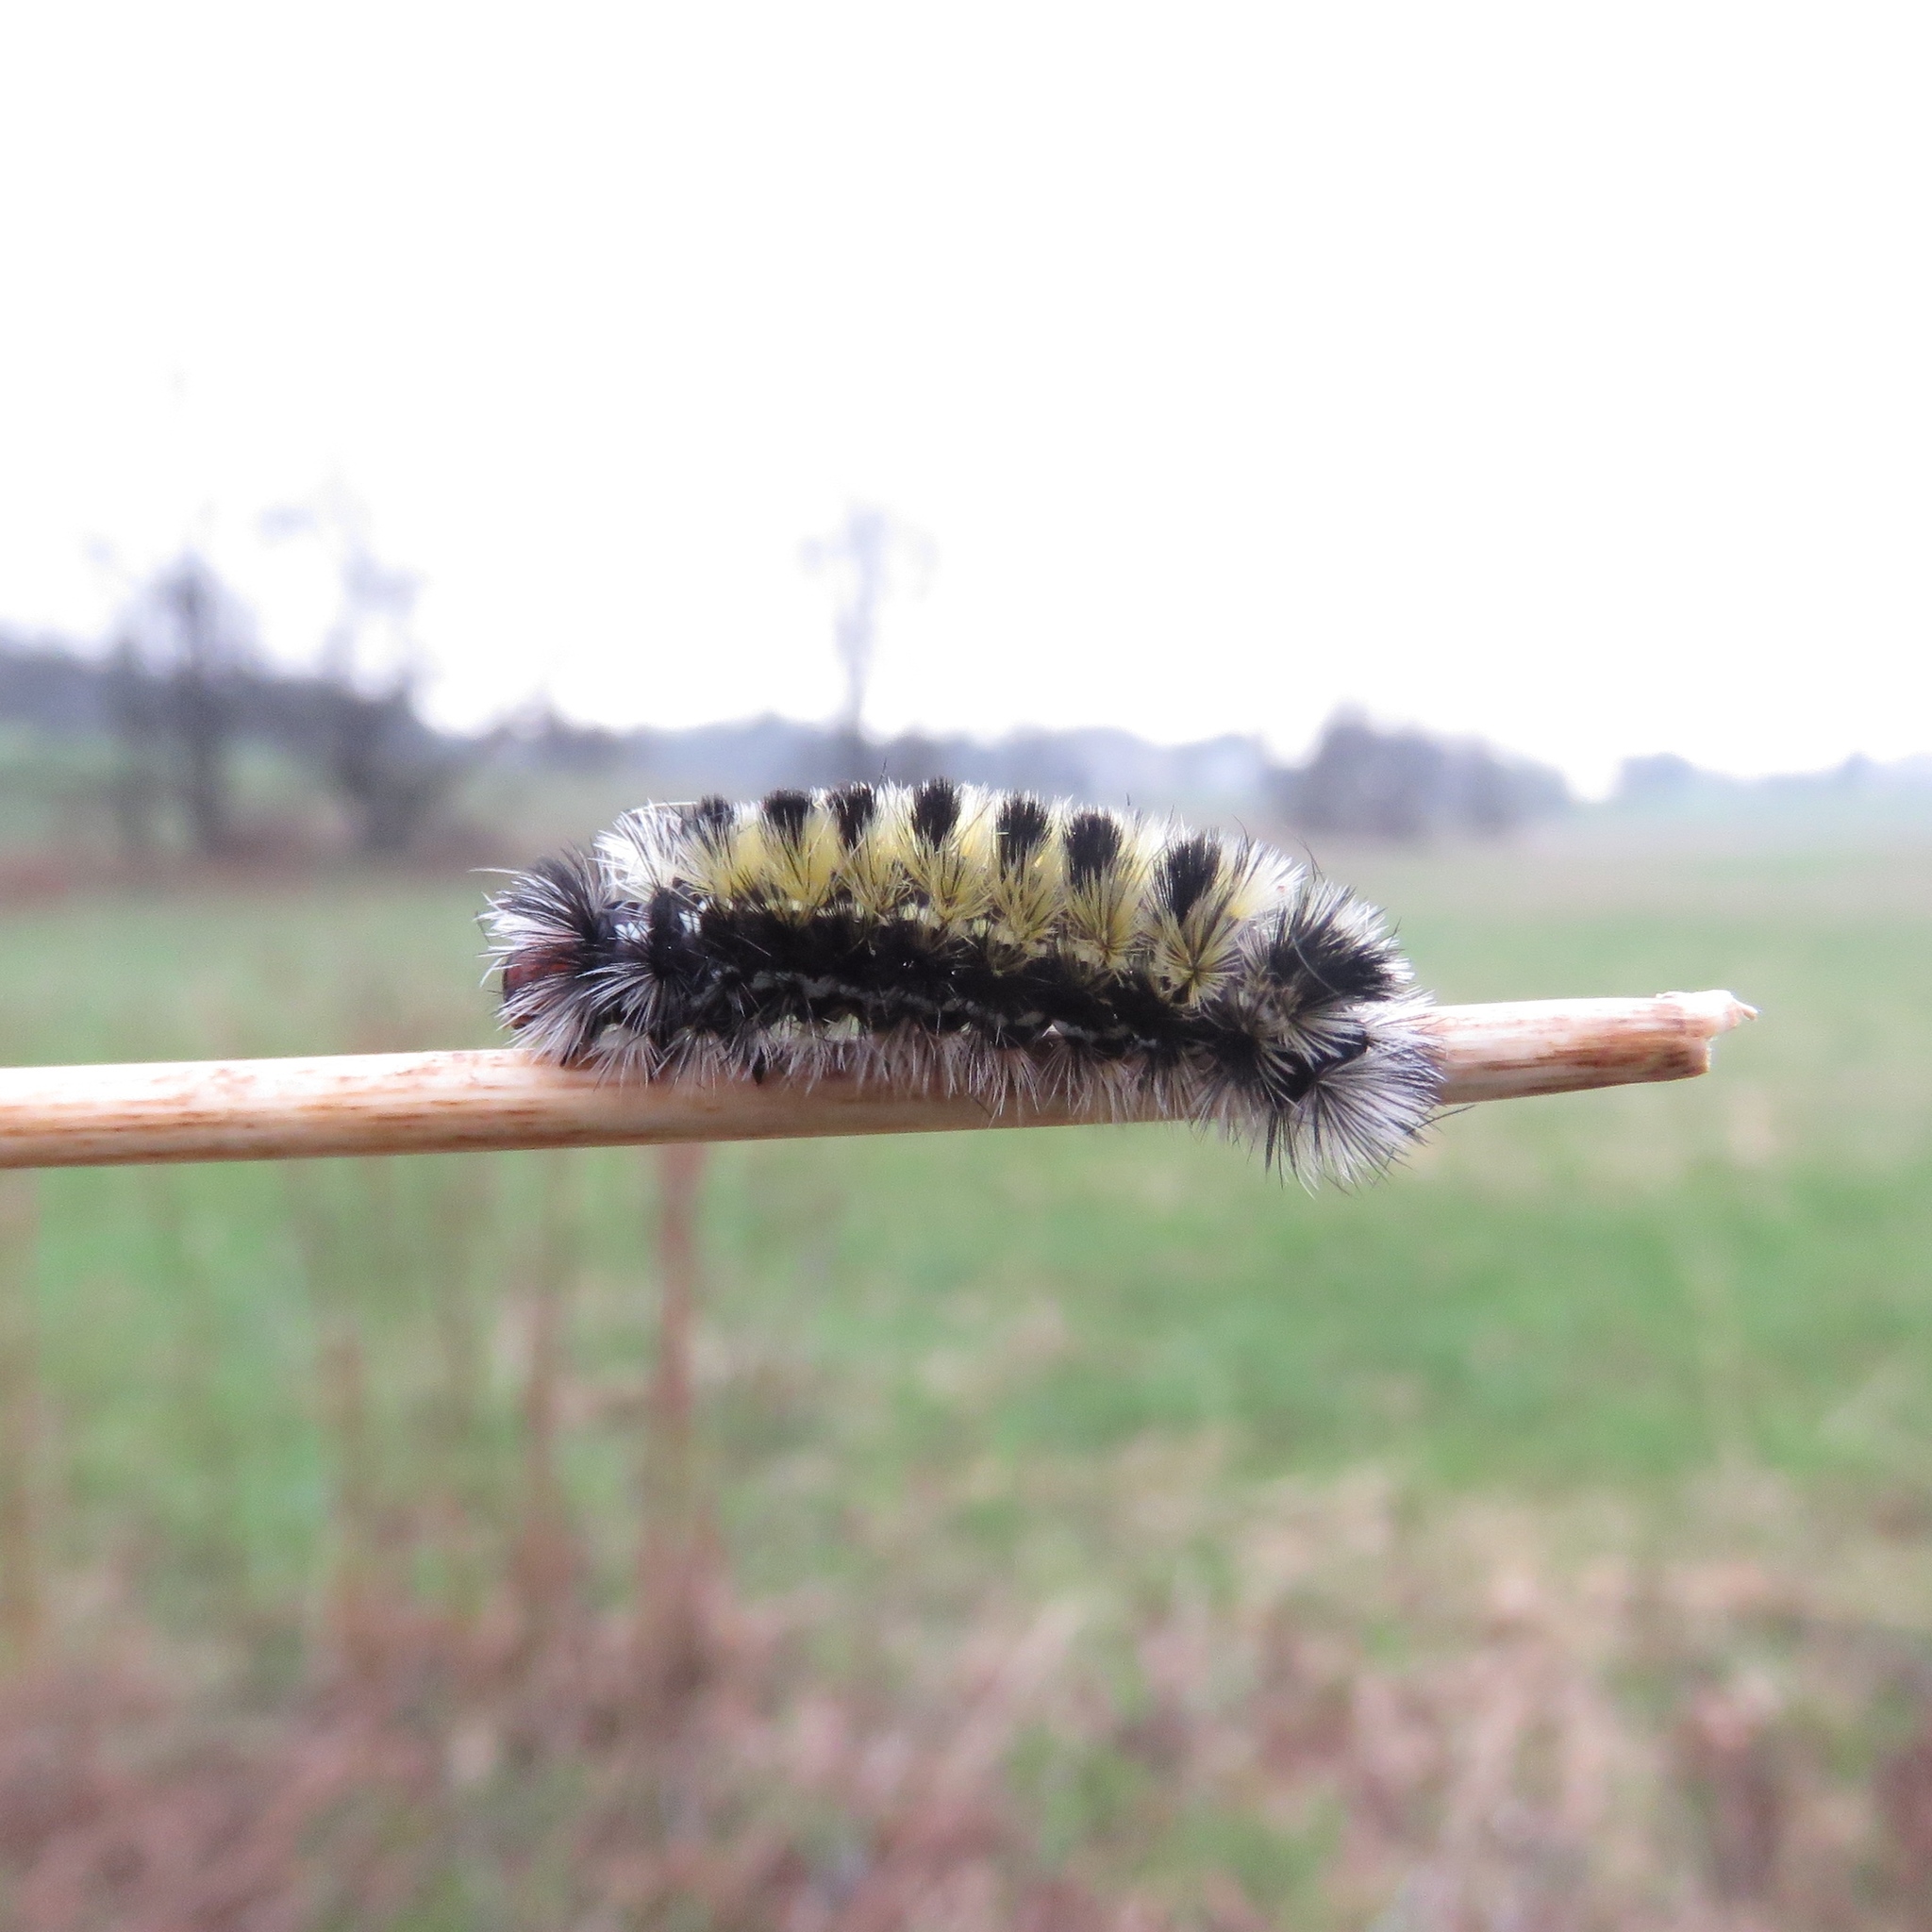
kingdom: Animalia
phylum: Arthropoda
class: Insecta
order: Lepidoptera
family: Erebidae
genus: Ctenucha
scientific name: Ctenucha virginica
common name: Virginia ctenucha moth
